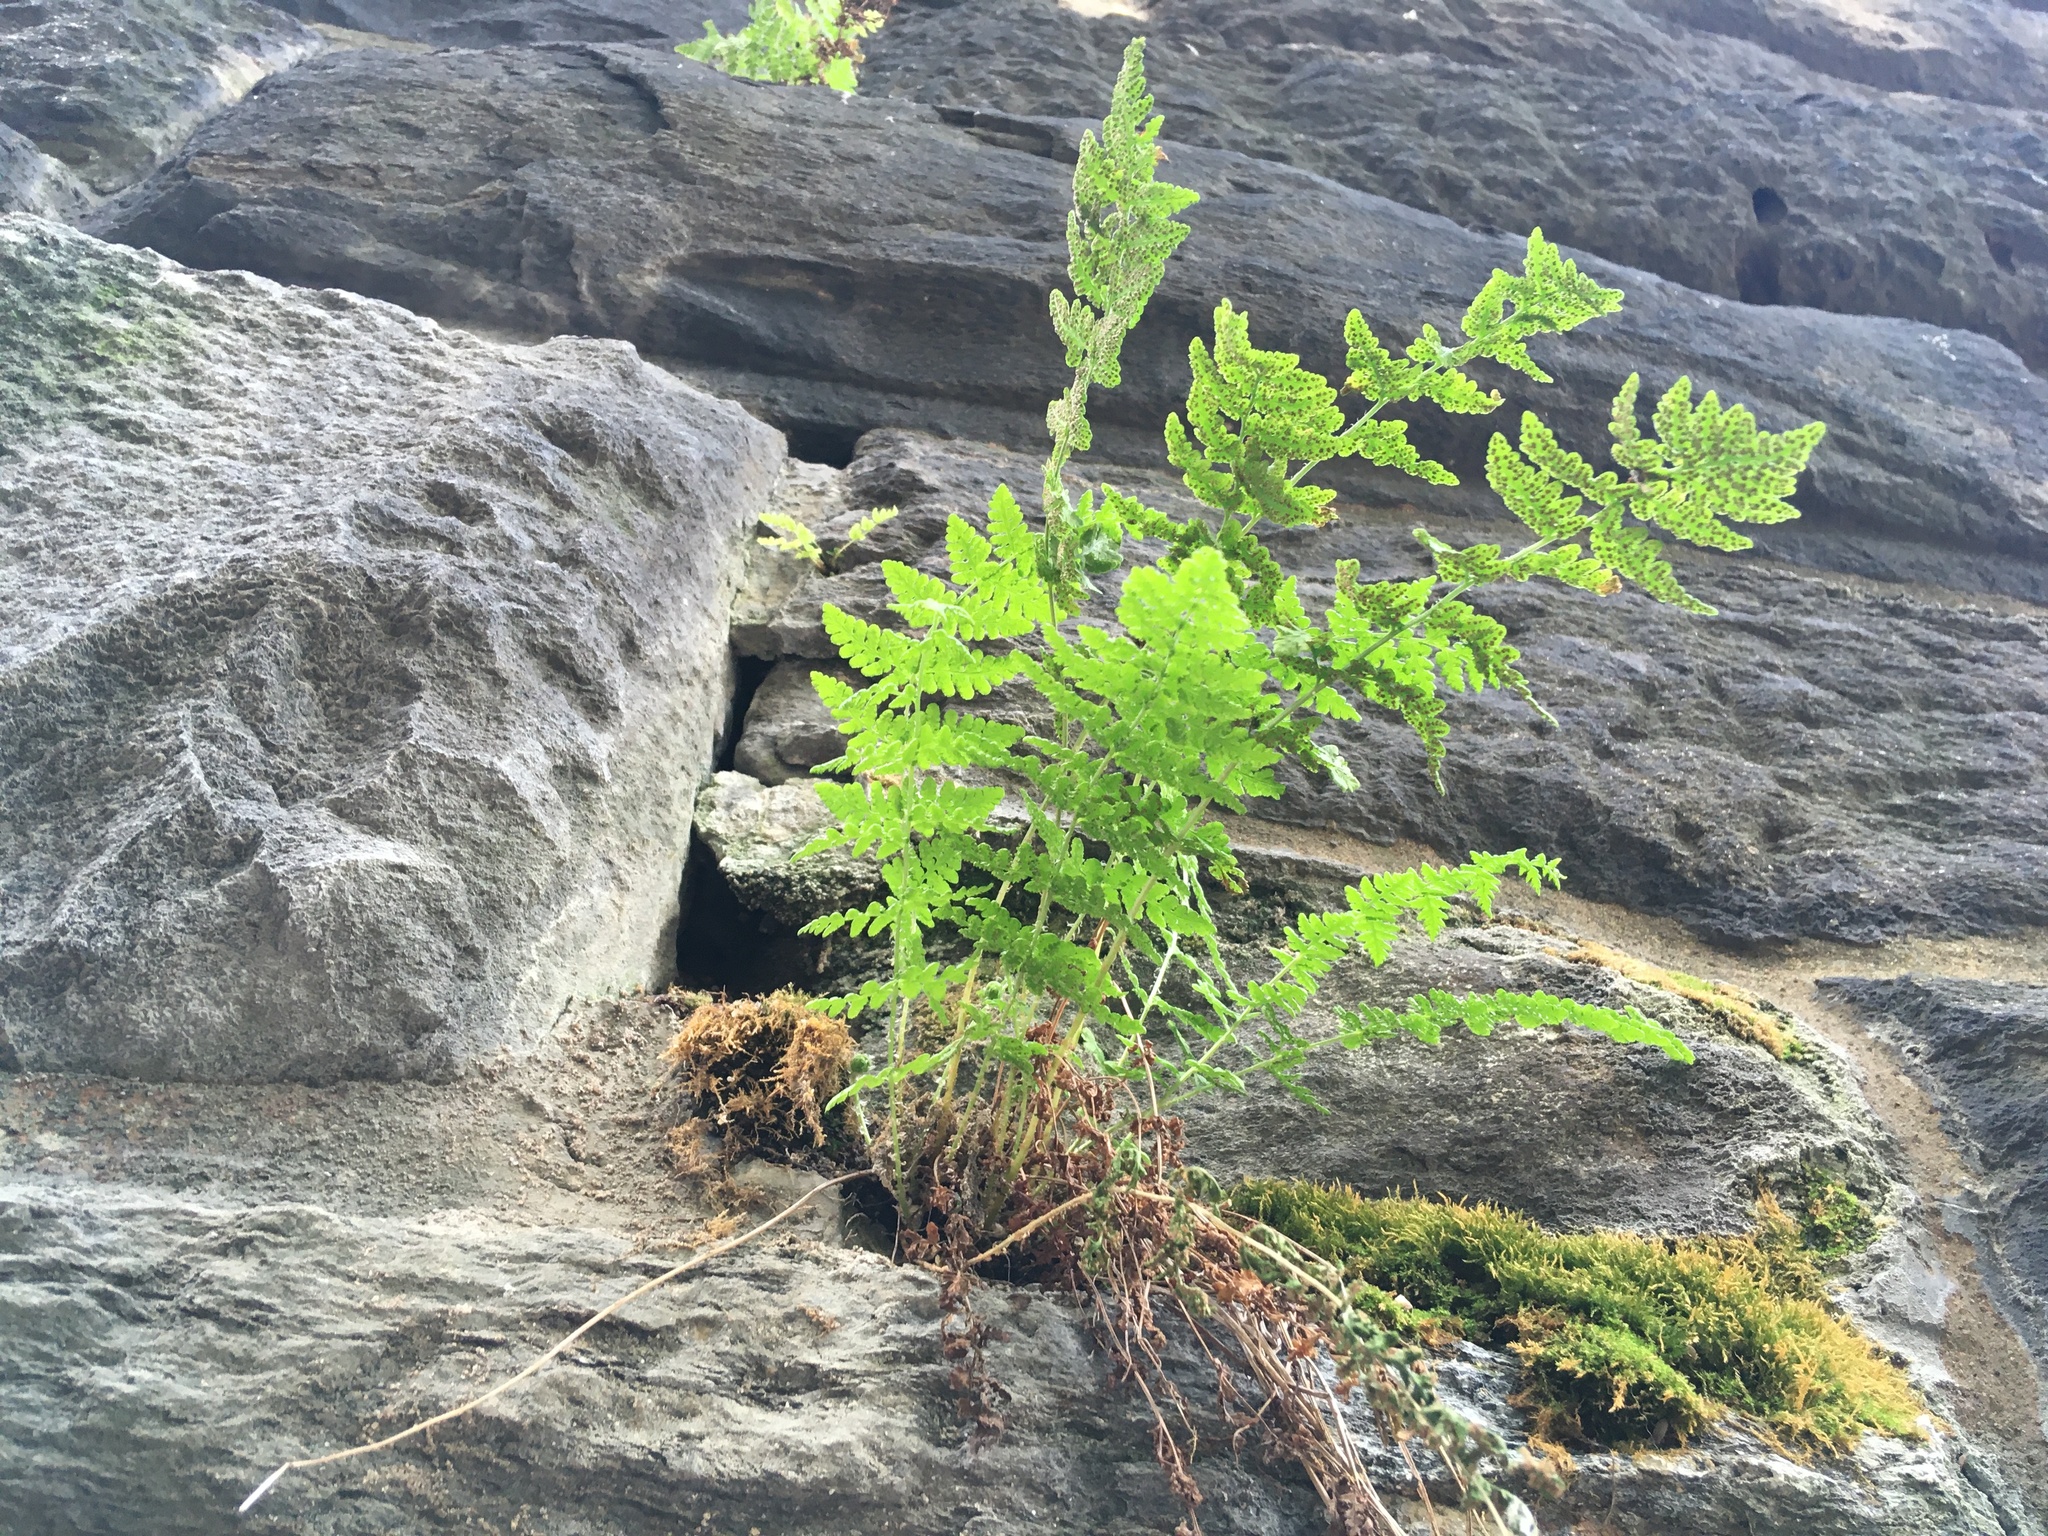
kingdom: Plantae
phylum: Tracheophyta
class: Polypodiopsida
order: Polypodiales
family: Woodsiaceae
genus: Physematium
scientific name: Physematium obtusum
